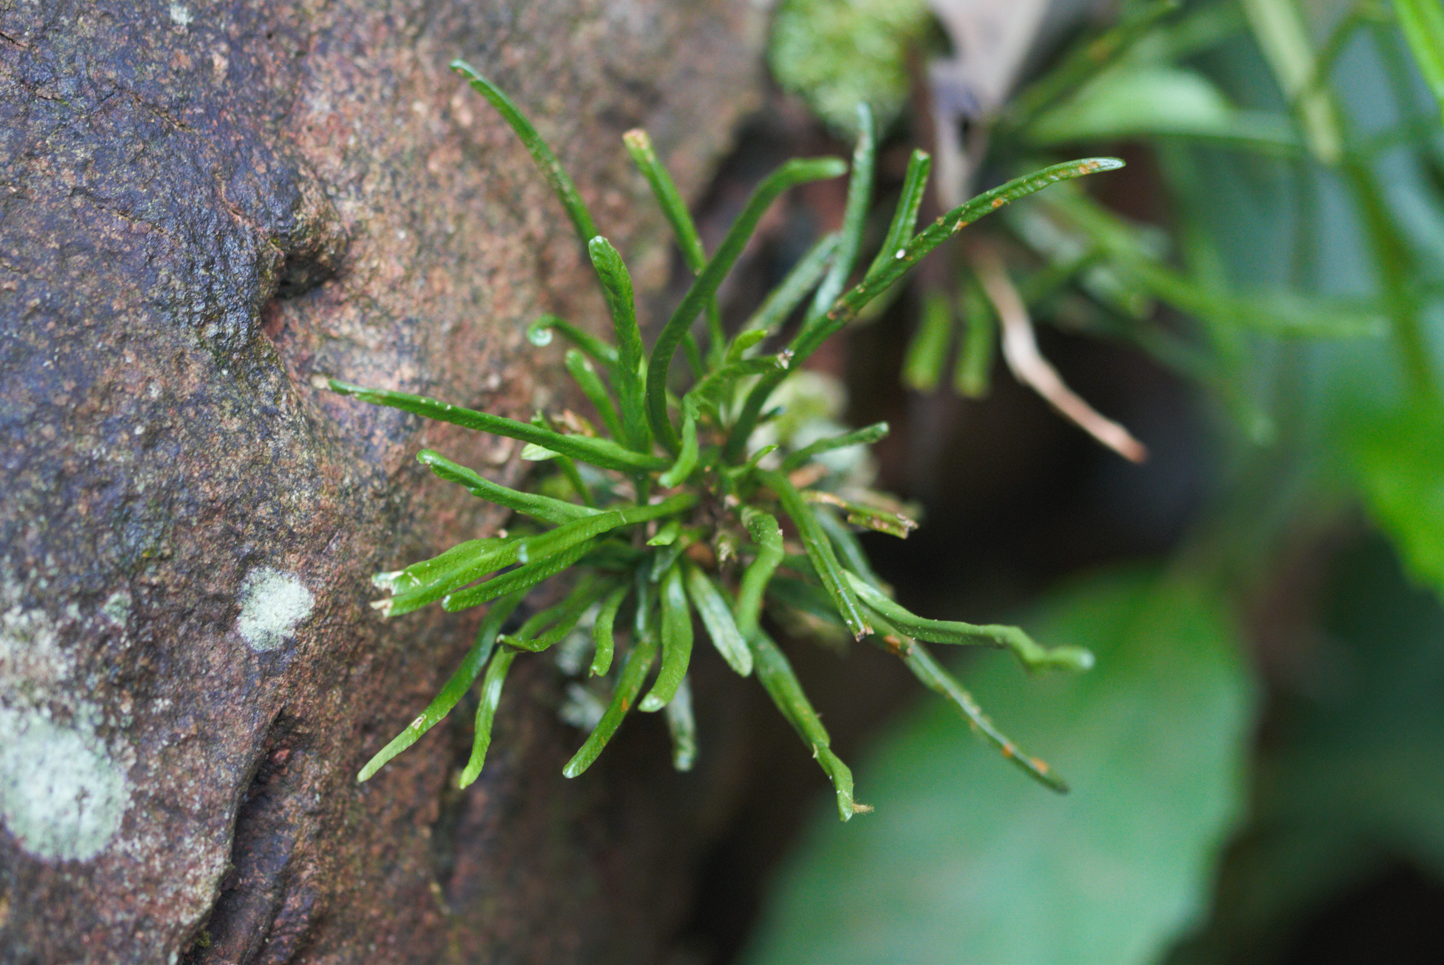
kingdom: Plantae
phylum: Tracheophyta
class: Polypodiopsida
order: Polypodiales
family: Polypodiaceae
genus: Cochlidium
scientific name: Cochlidium linearifolium
